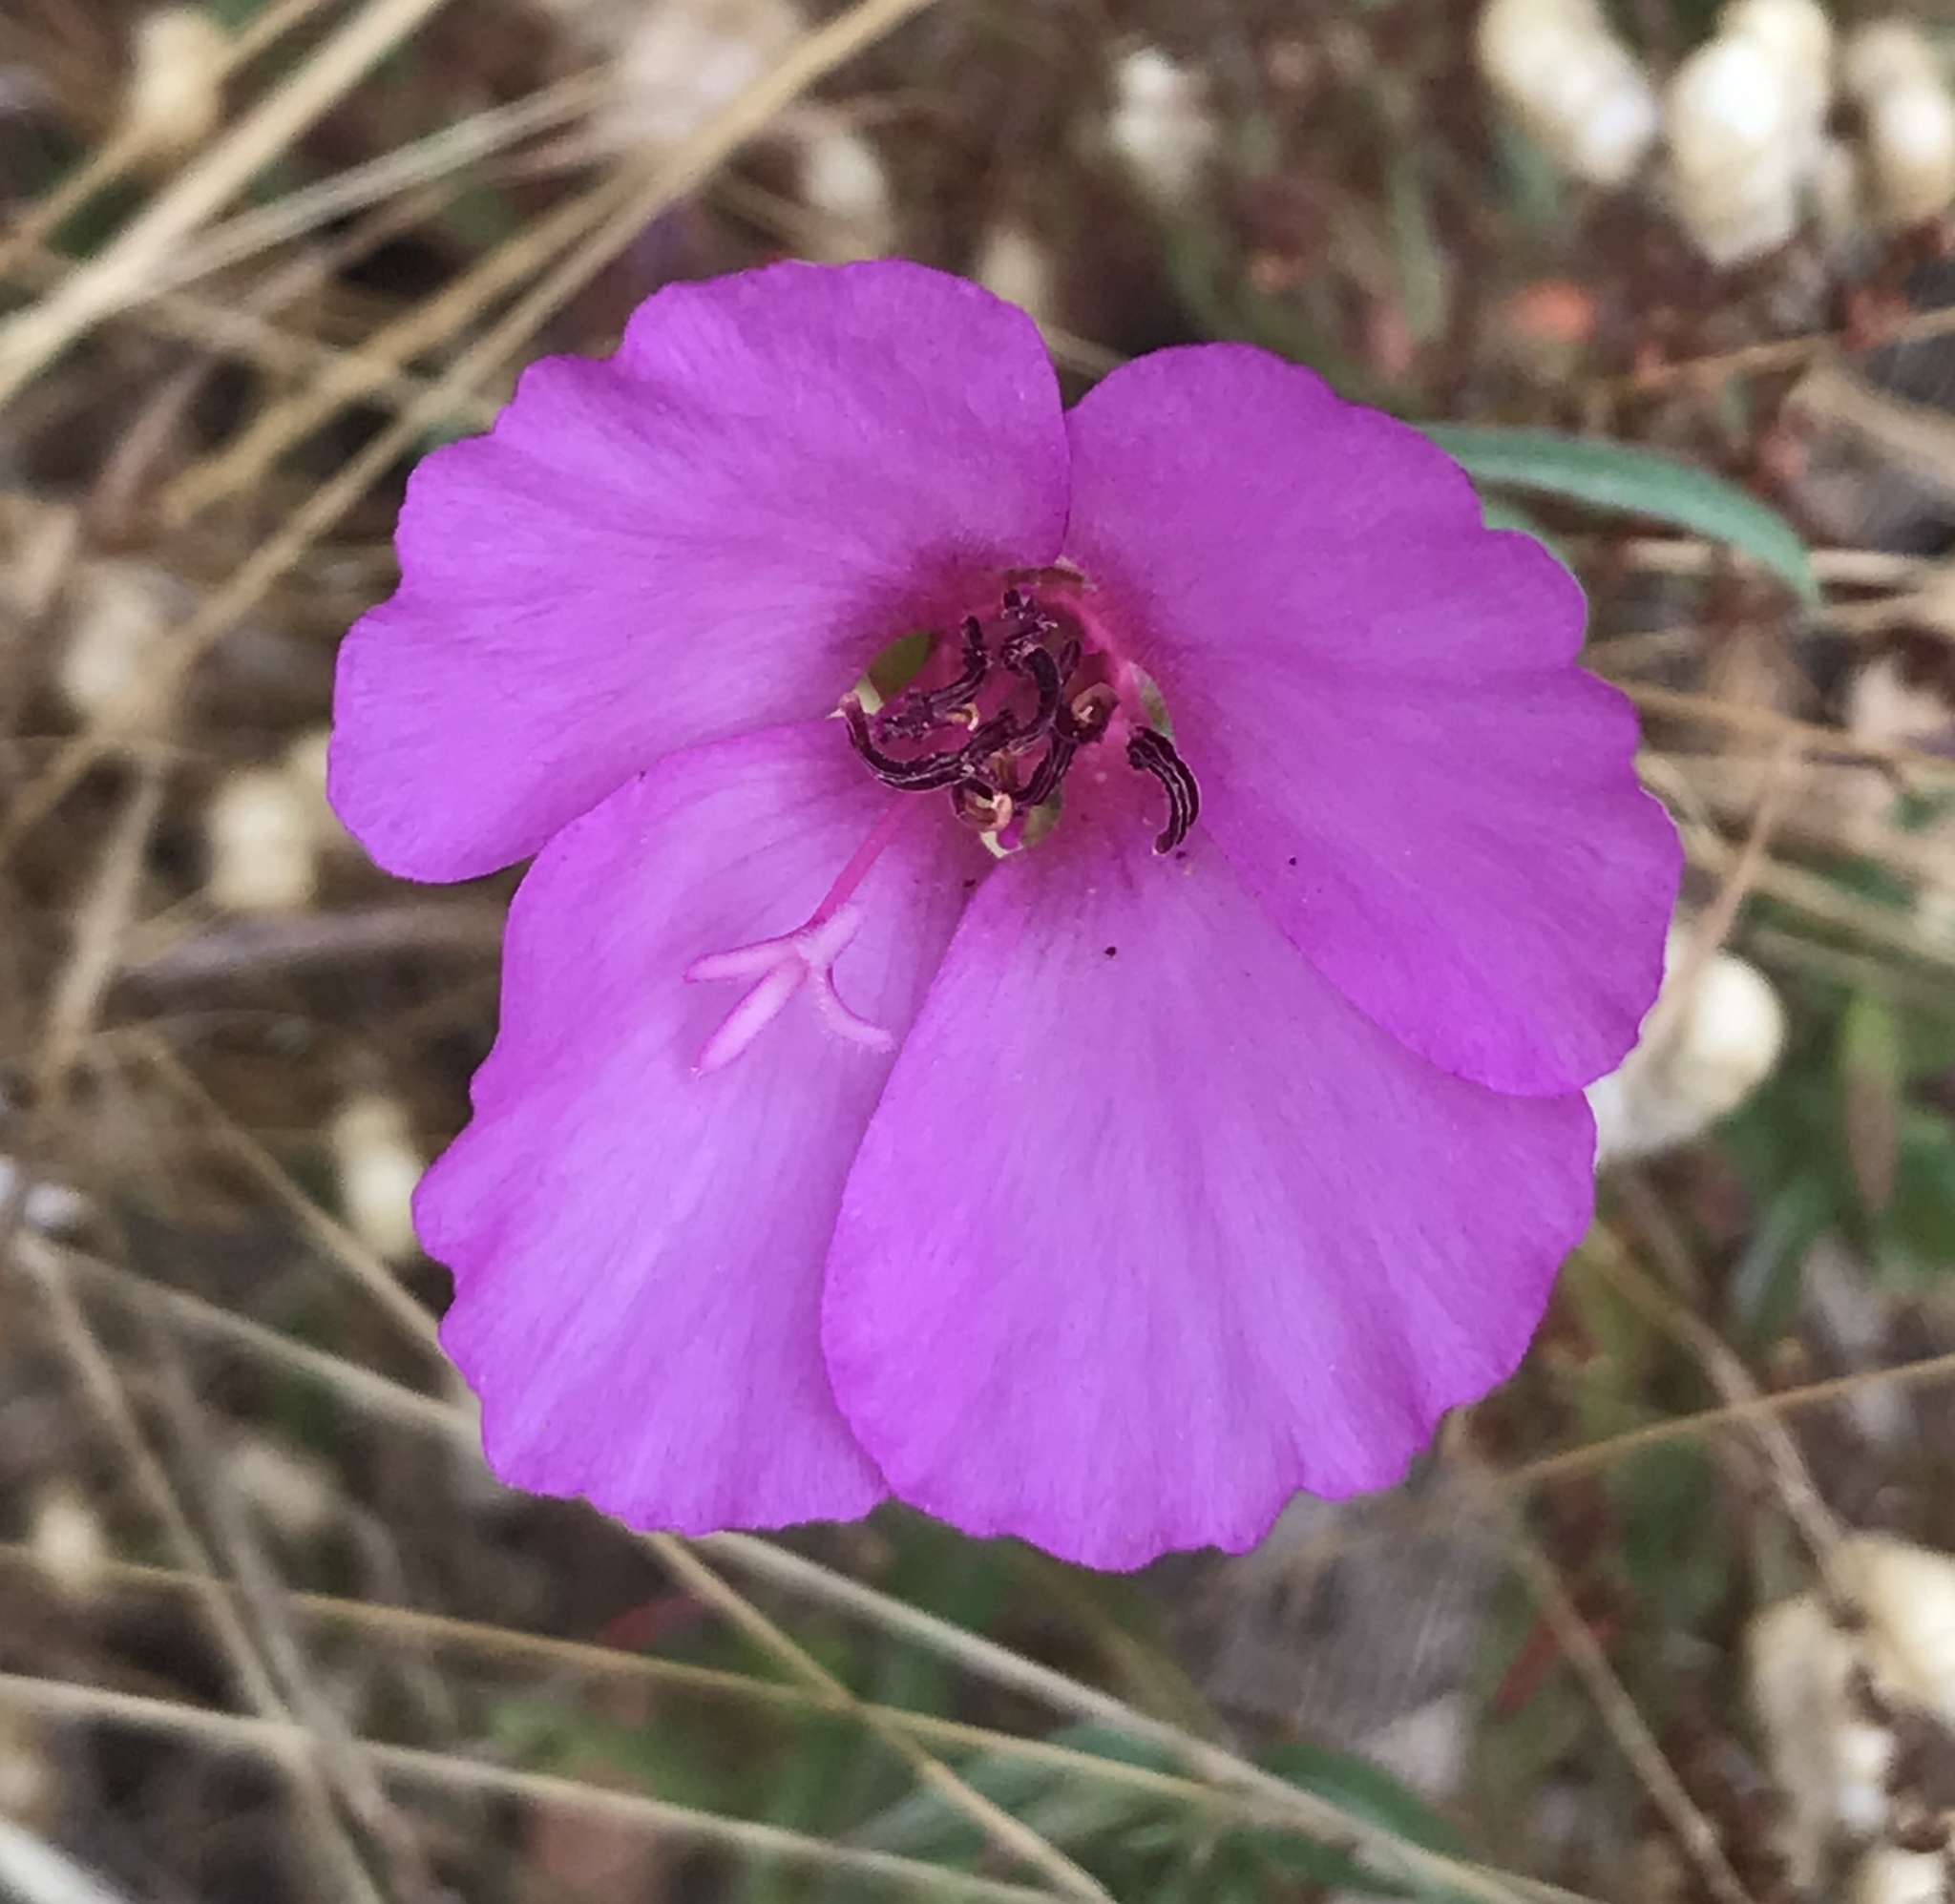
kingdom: Plantae
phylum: Tracheophyta
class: Magnoliopsida
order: Myrtales
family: Onagraceae
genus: Clarkia
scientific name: Clarkia rubicunda
